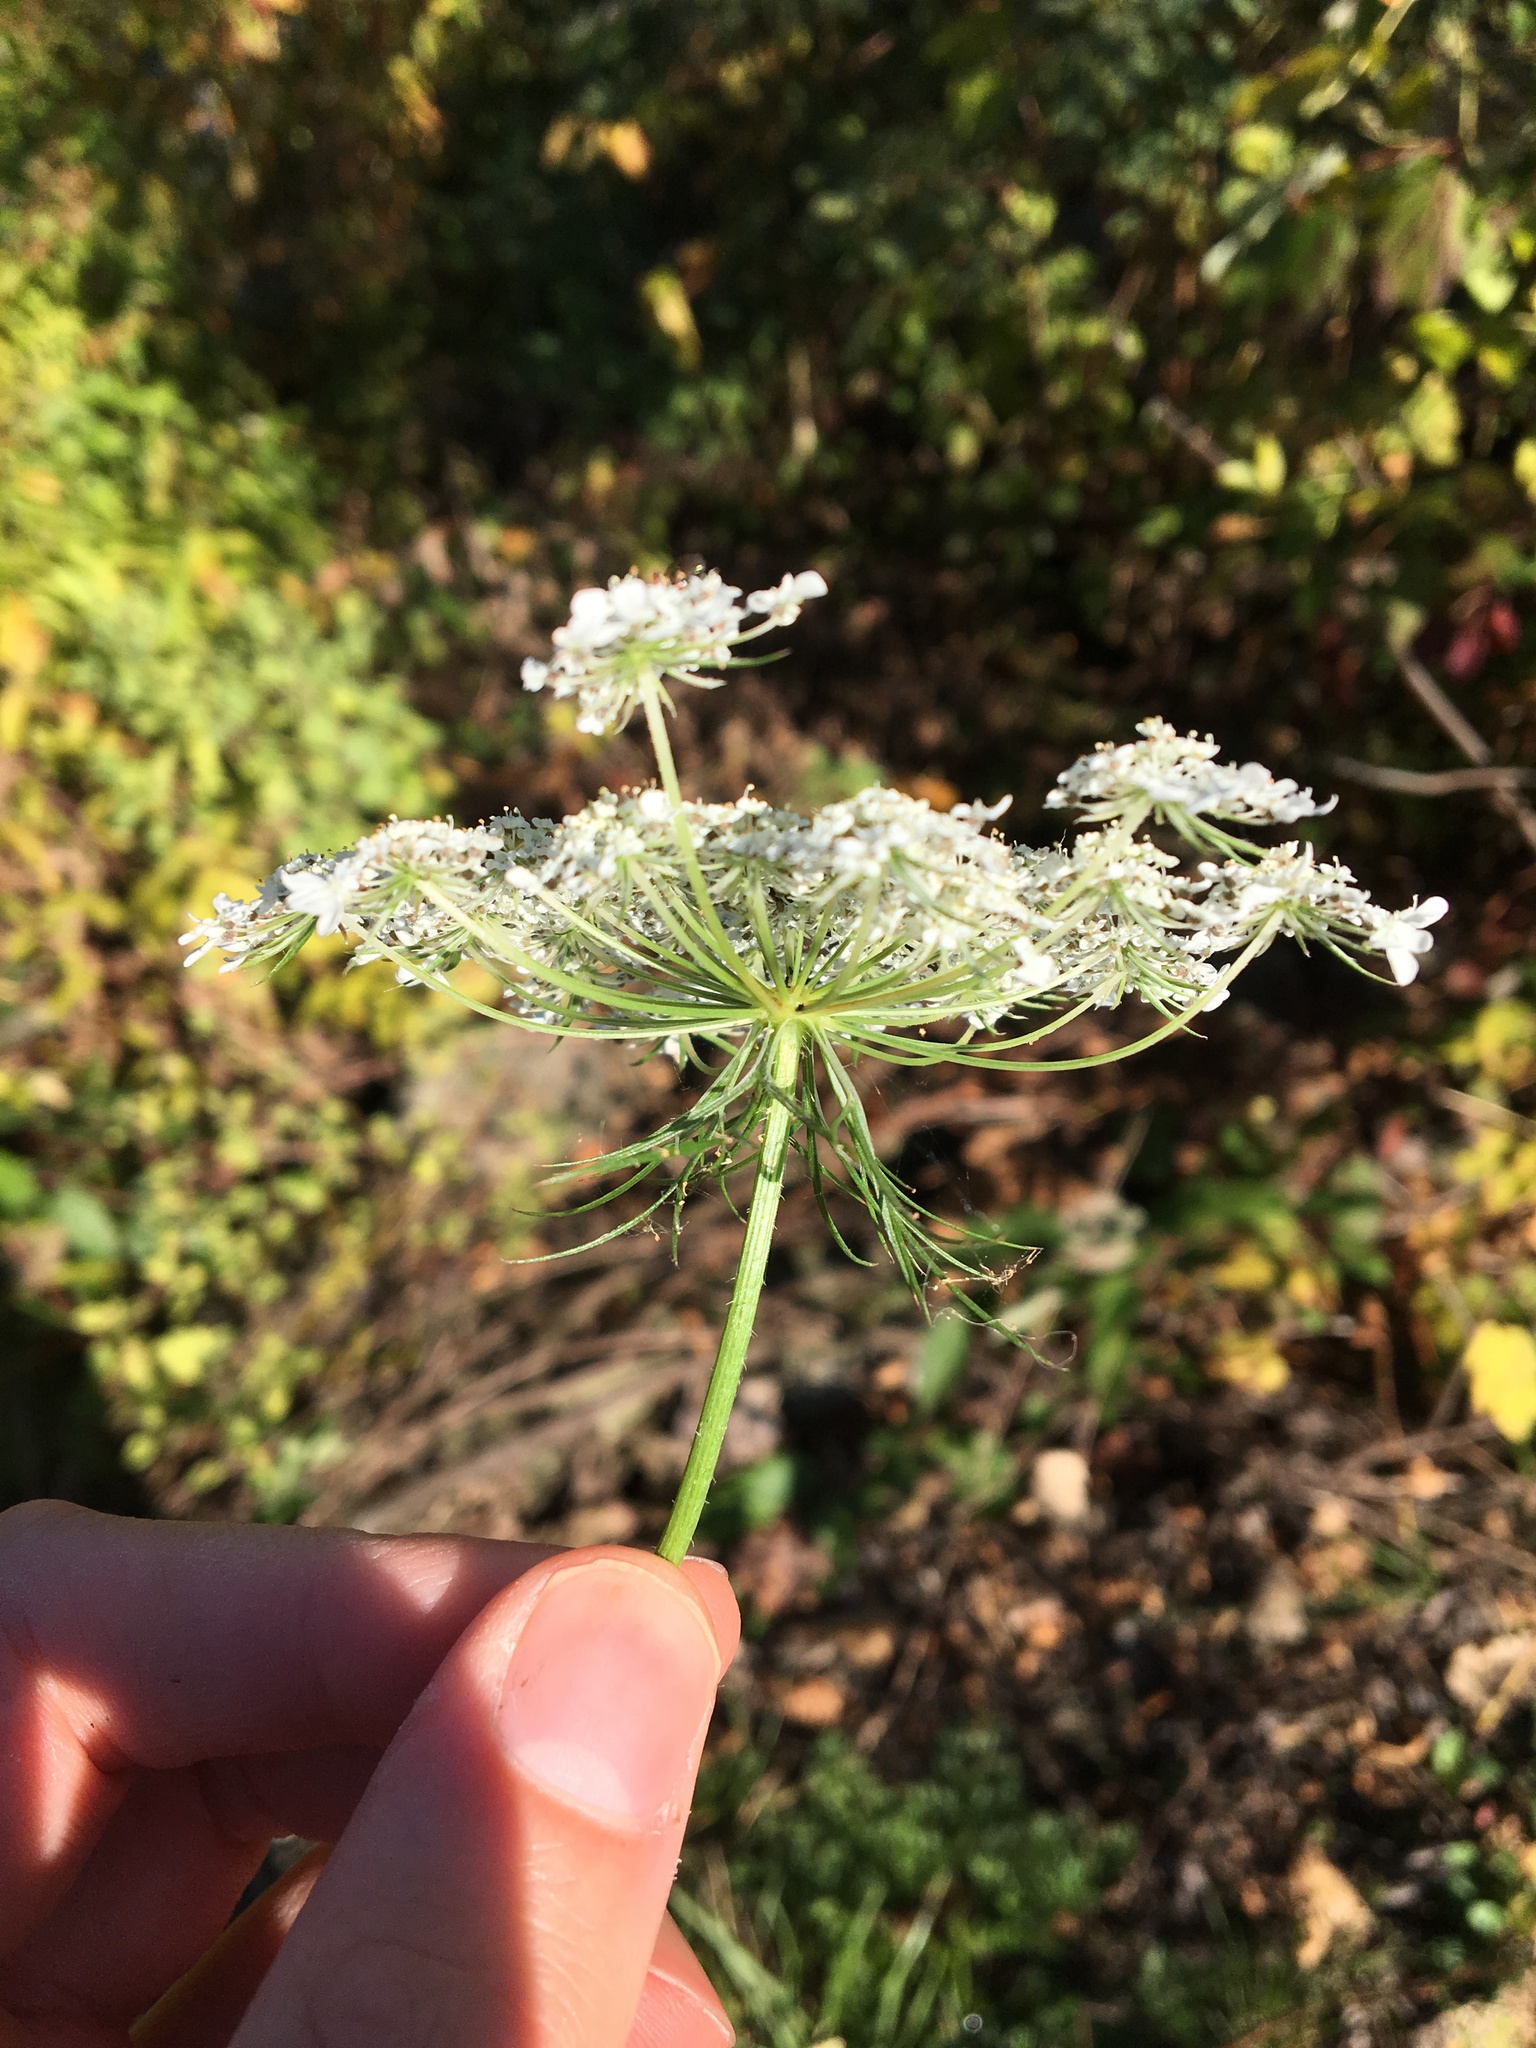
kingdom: Plantae
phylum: Tracheophyta
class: Magnoliopsida
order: Apiales
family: Apiaceae
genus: Daucus
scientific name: Daucus carota
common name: Wild carrot
